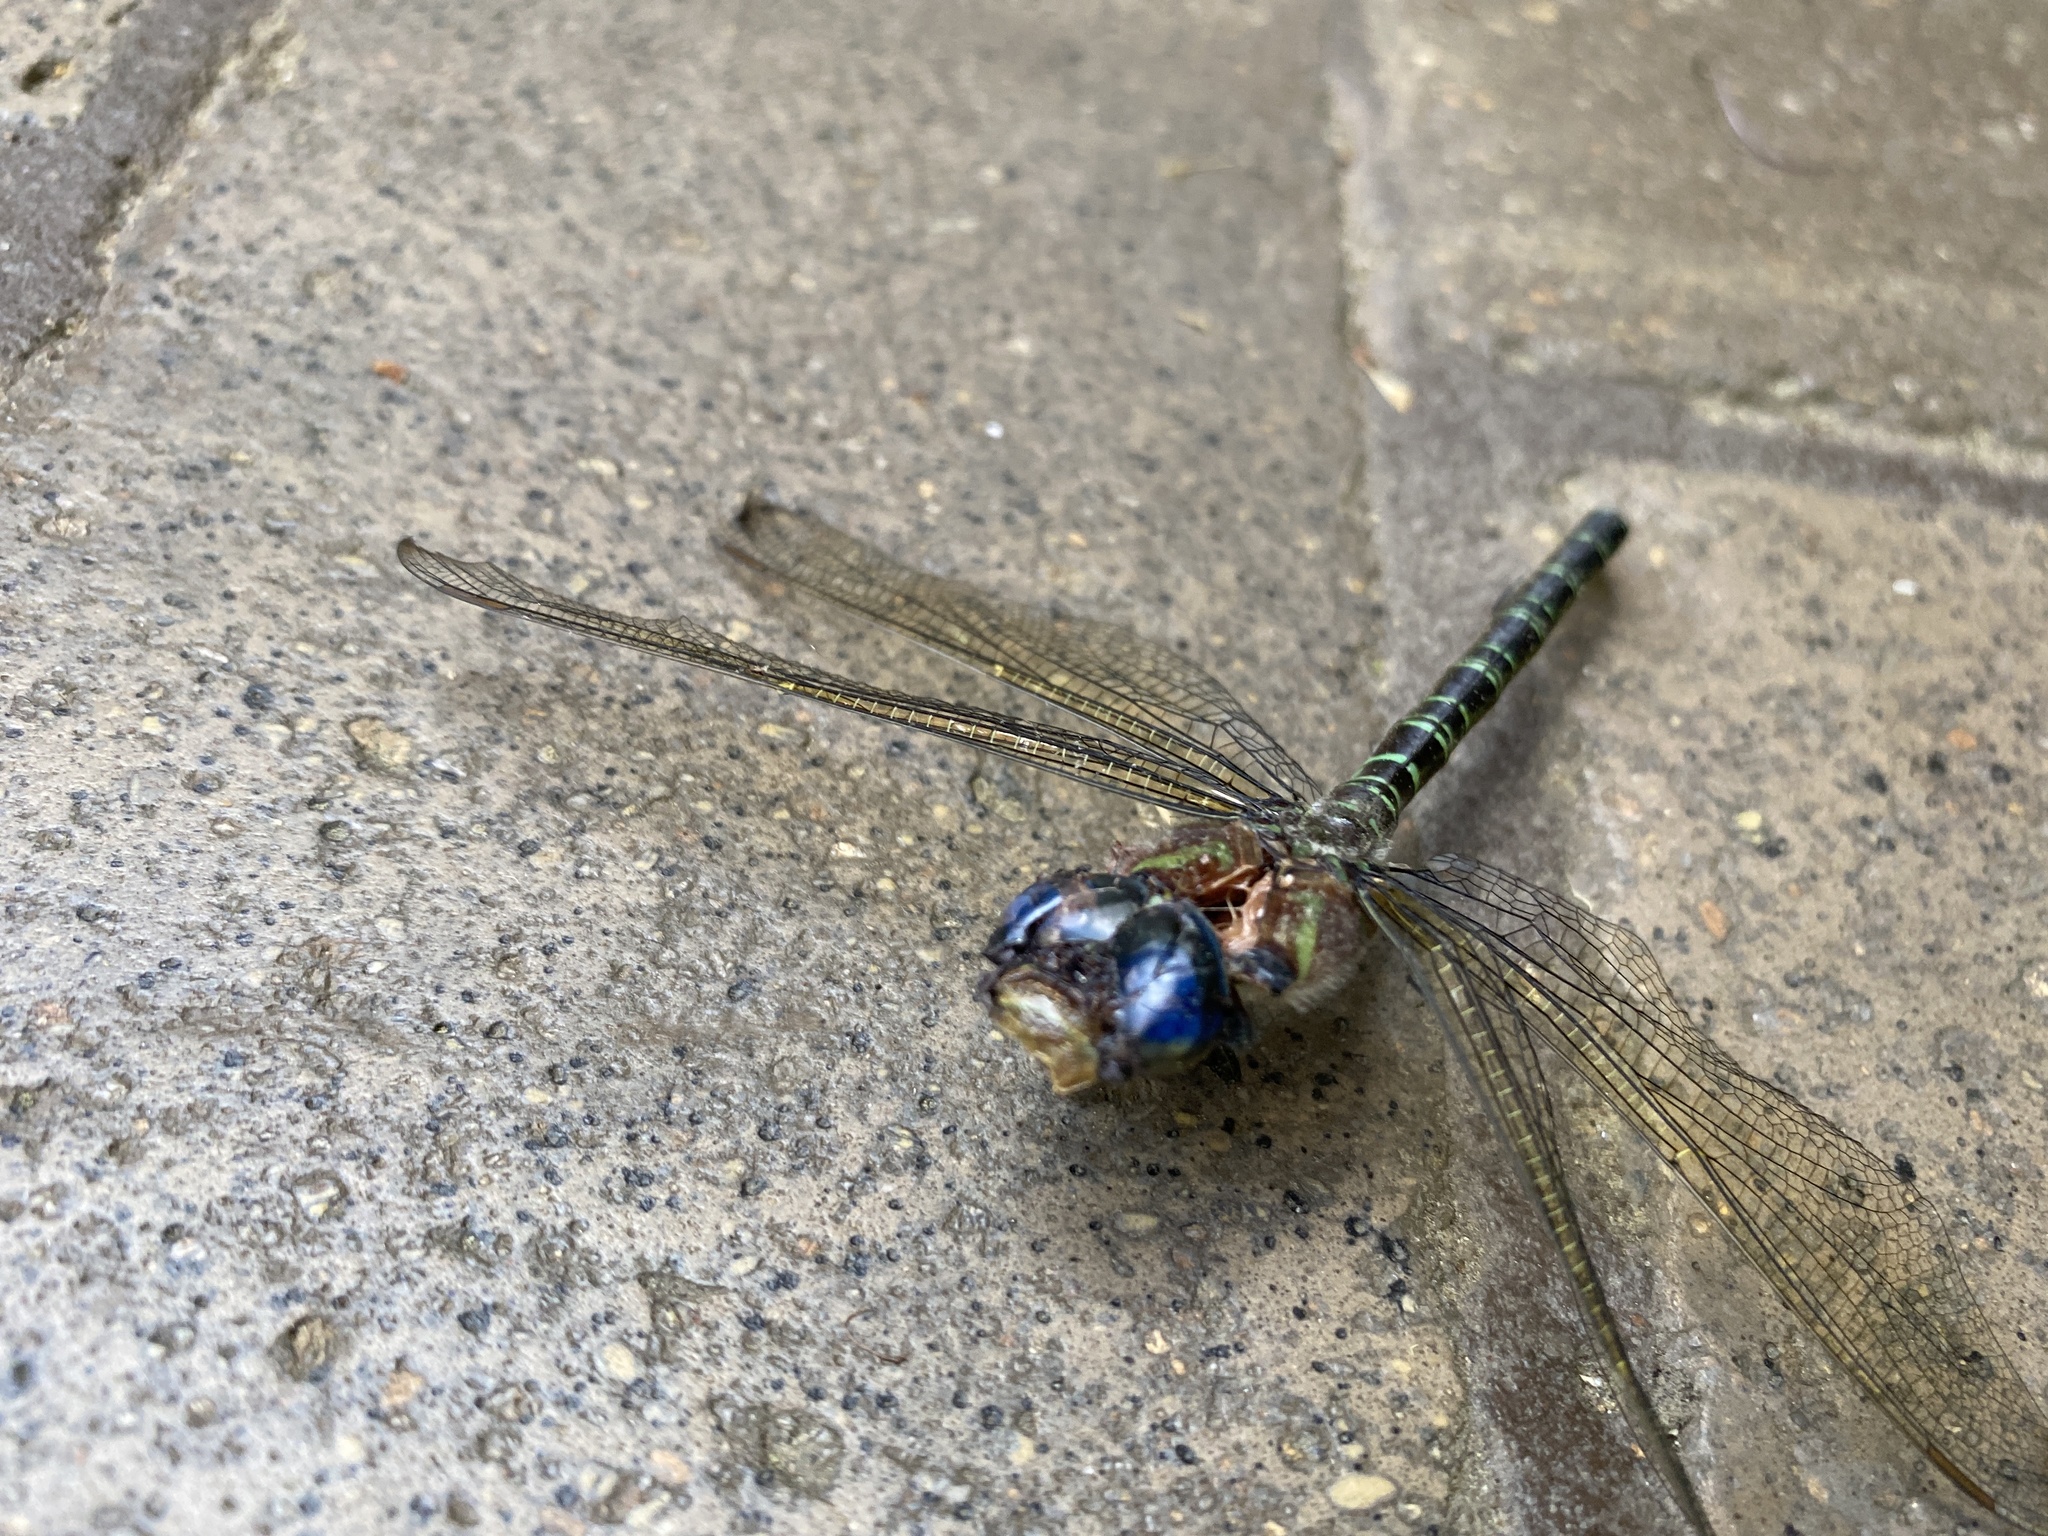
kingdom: Animalia
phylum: Arthropoda
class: Insecta
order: Odonata
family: Aeshnidae
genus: Epiaeschna
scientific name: Epiaeschna heros
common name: Swamp darner
